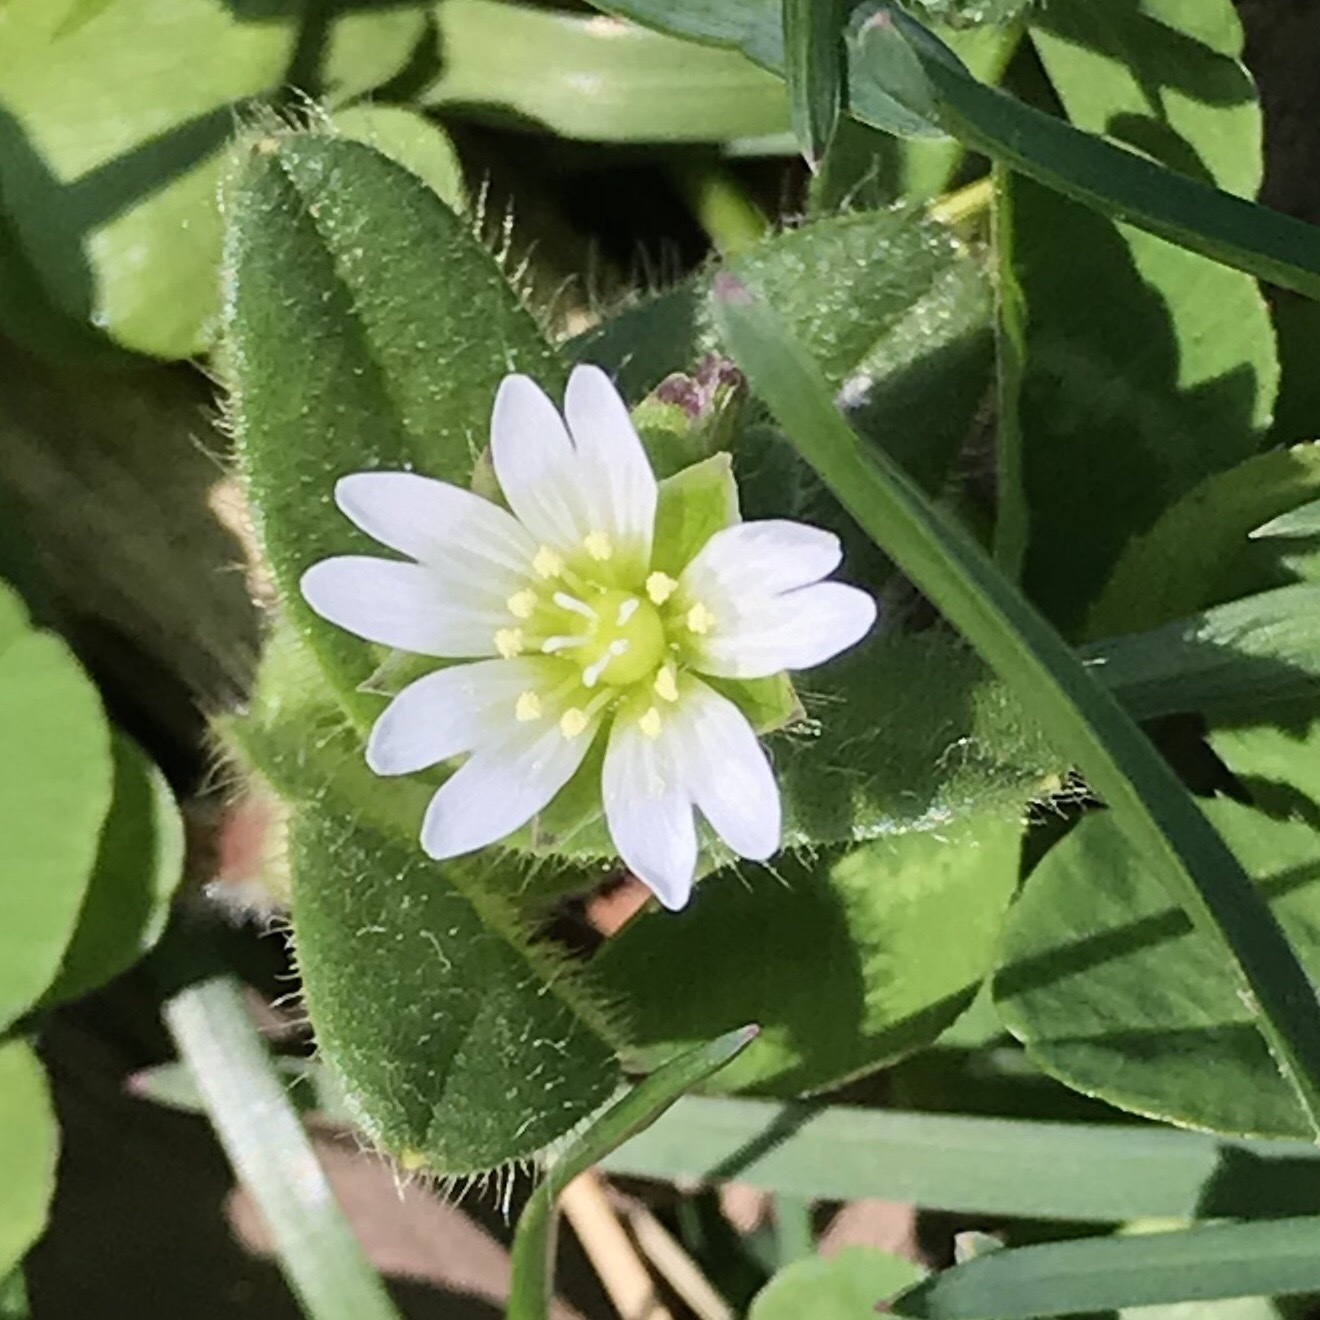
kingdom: Plantae
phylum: Tracheophyta
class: Magnoliopsida
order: Caryophyllales
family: Caryophyllaceae
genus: Cerastium
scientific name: Cerastium fontanum
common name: Common mouse-ear
